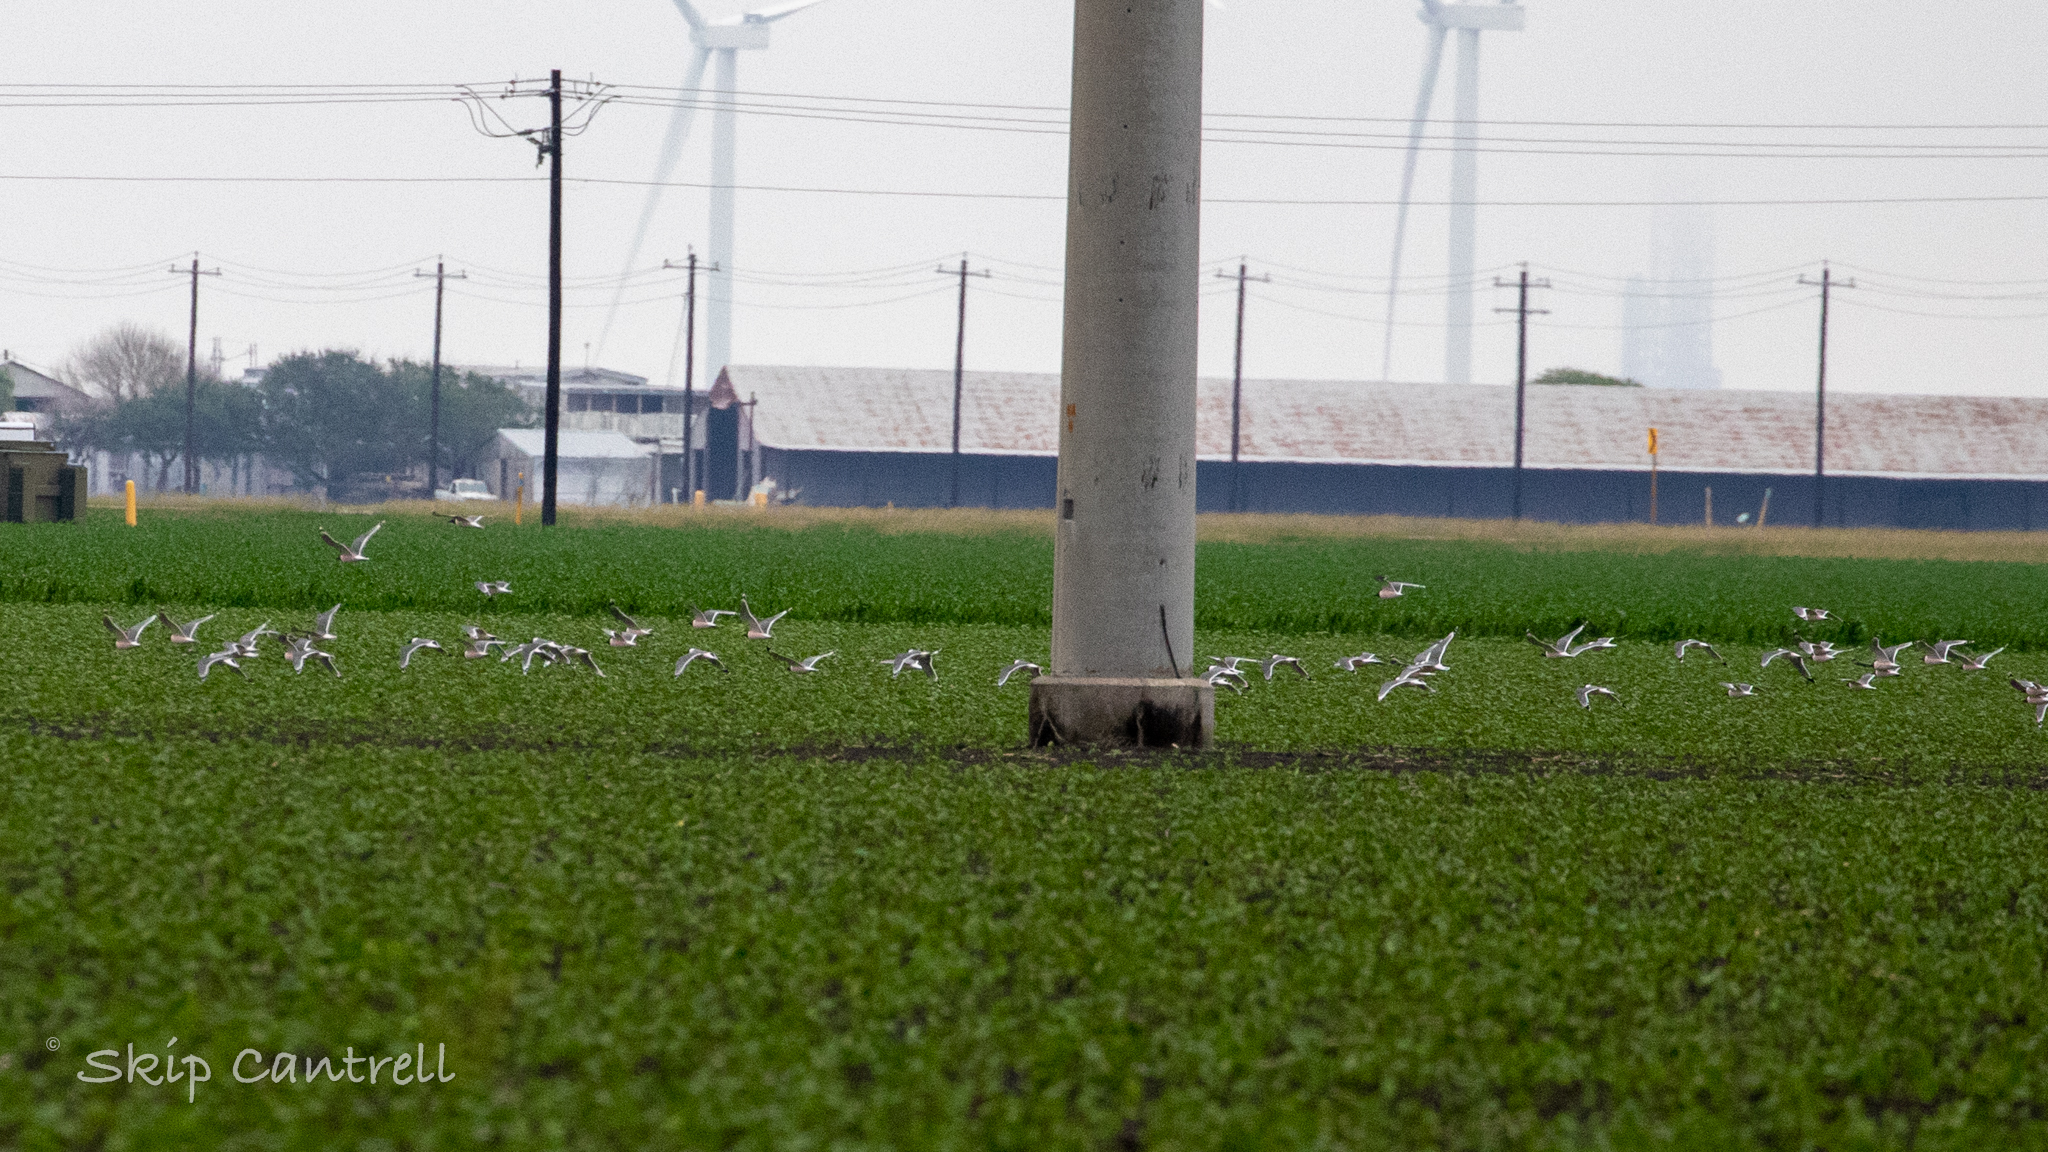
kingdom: Animalia
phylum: Chordata
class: Aves
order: Charadriiformes
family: Laridae
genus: Leucophaeus
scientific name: Leucophaeus pipixcan
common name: Franklin's gull
